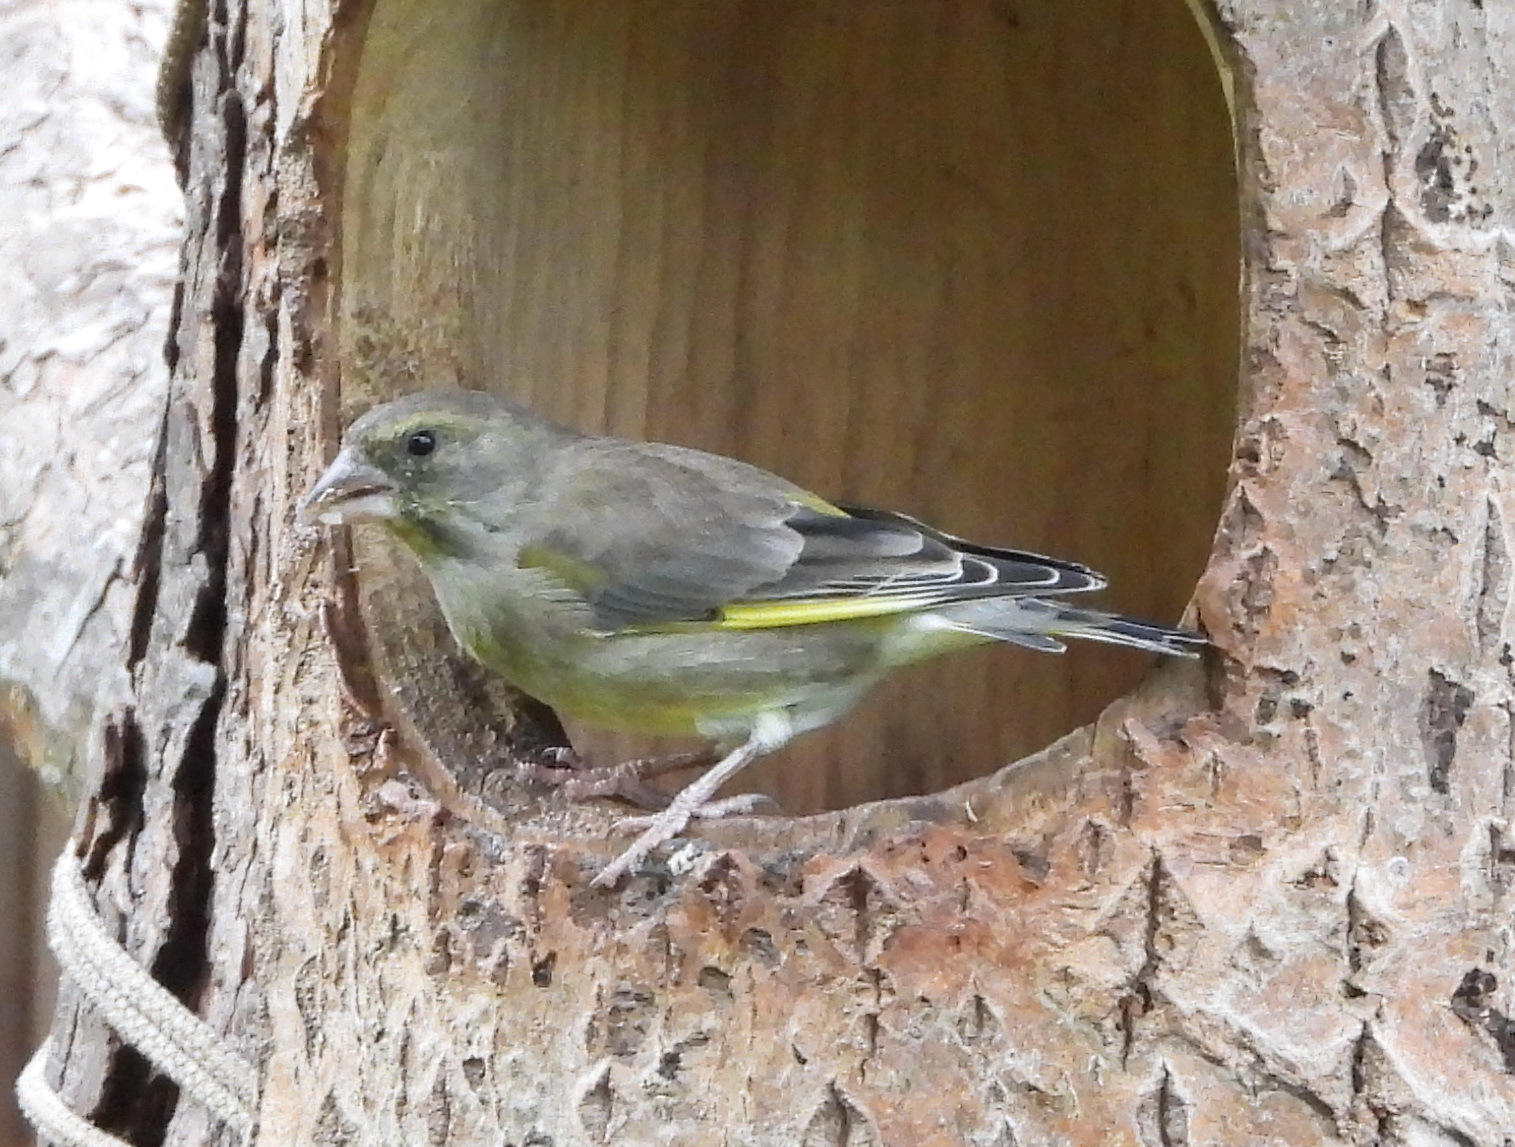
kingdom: Plantae
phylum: Tracheophyta
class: Liliopsida
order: Poales
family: Poaceae
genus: Chloris
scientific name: Chloris chloris
